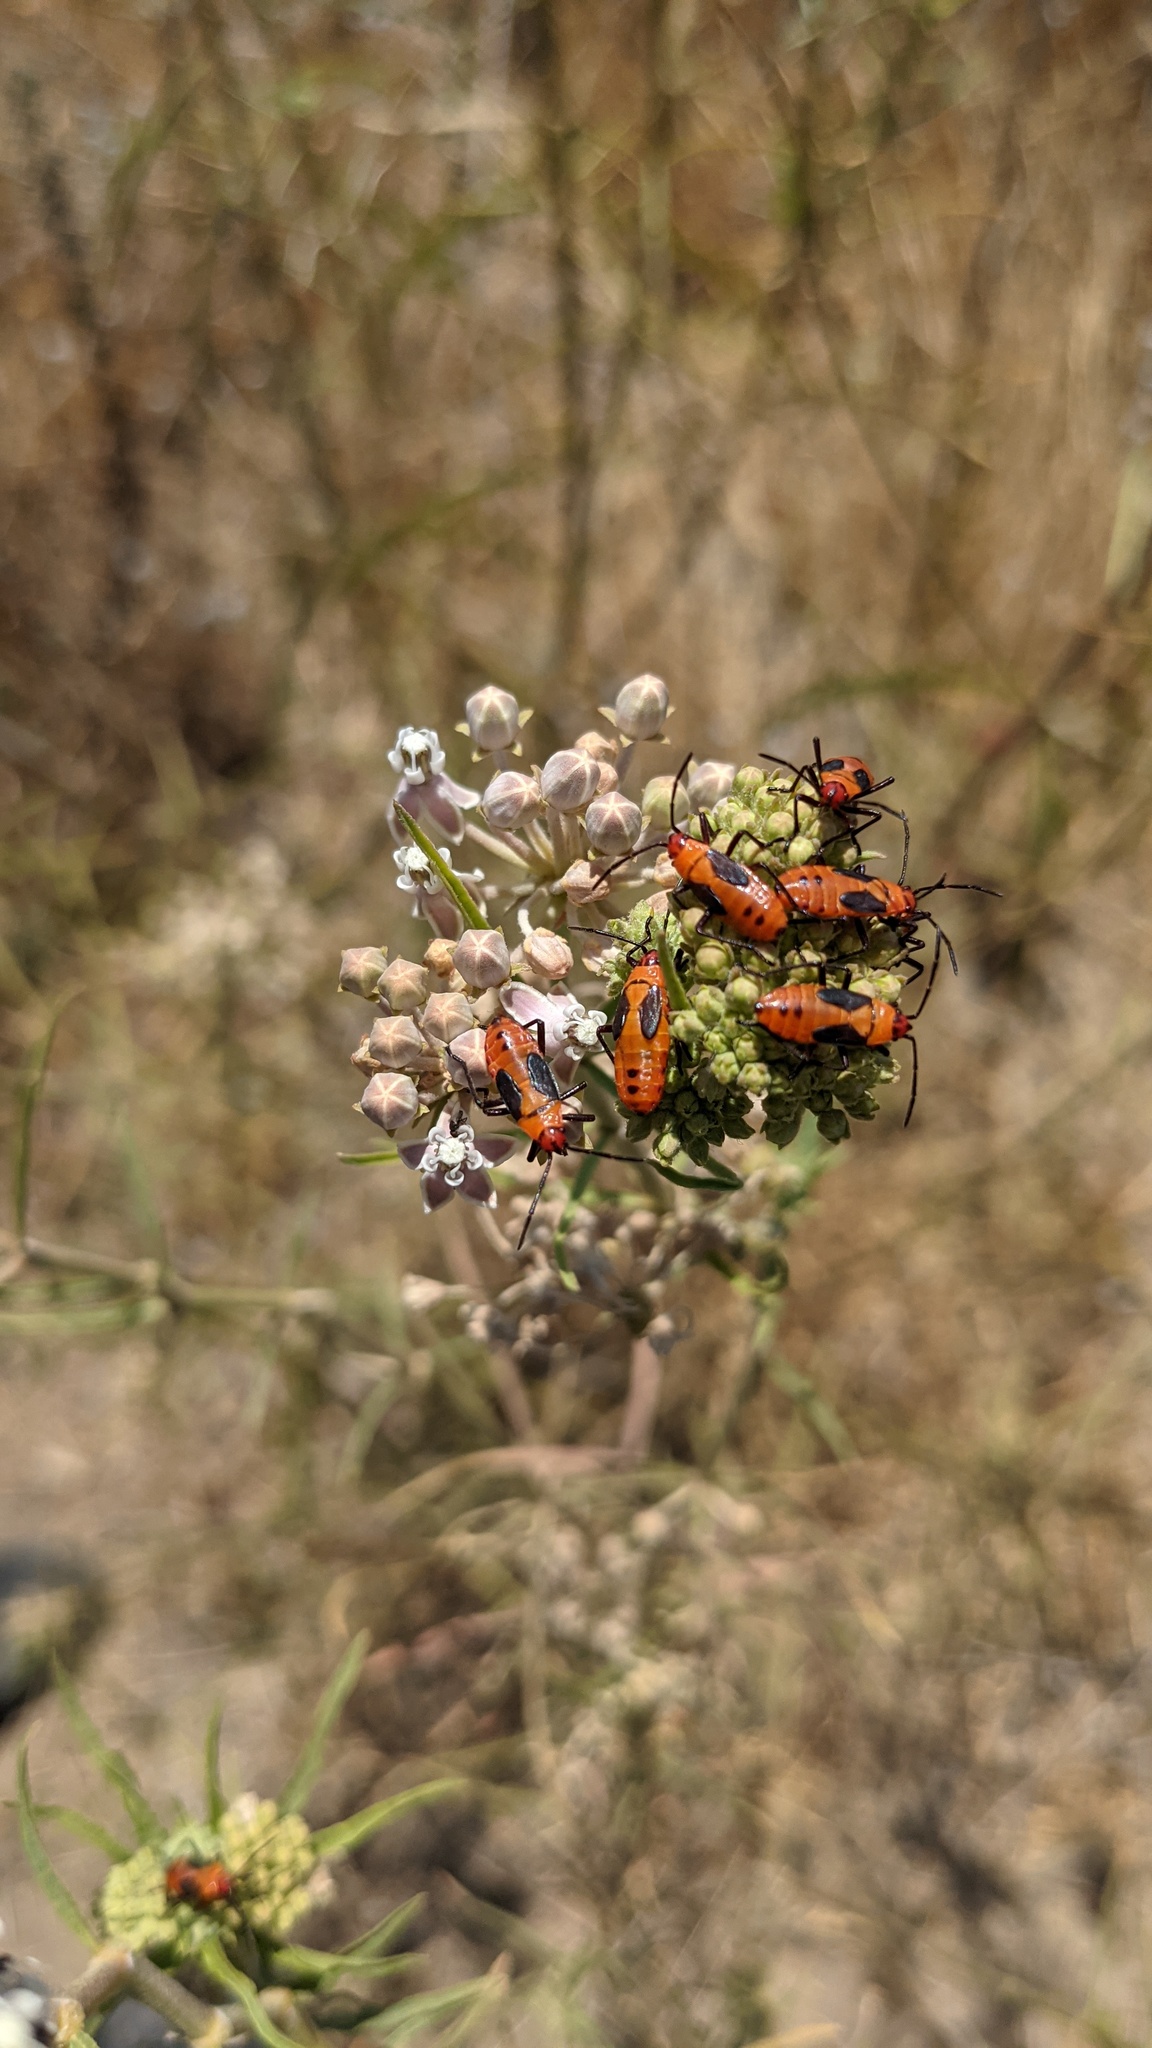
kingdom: Animalia
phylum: Arthropoda
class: Insecta
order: Hemiptera
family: Lygaeidae
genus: Oncopeltus
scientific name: Oncopeltus fasciatus
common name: Large milkweed bug
